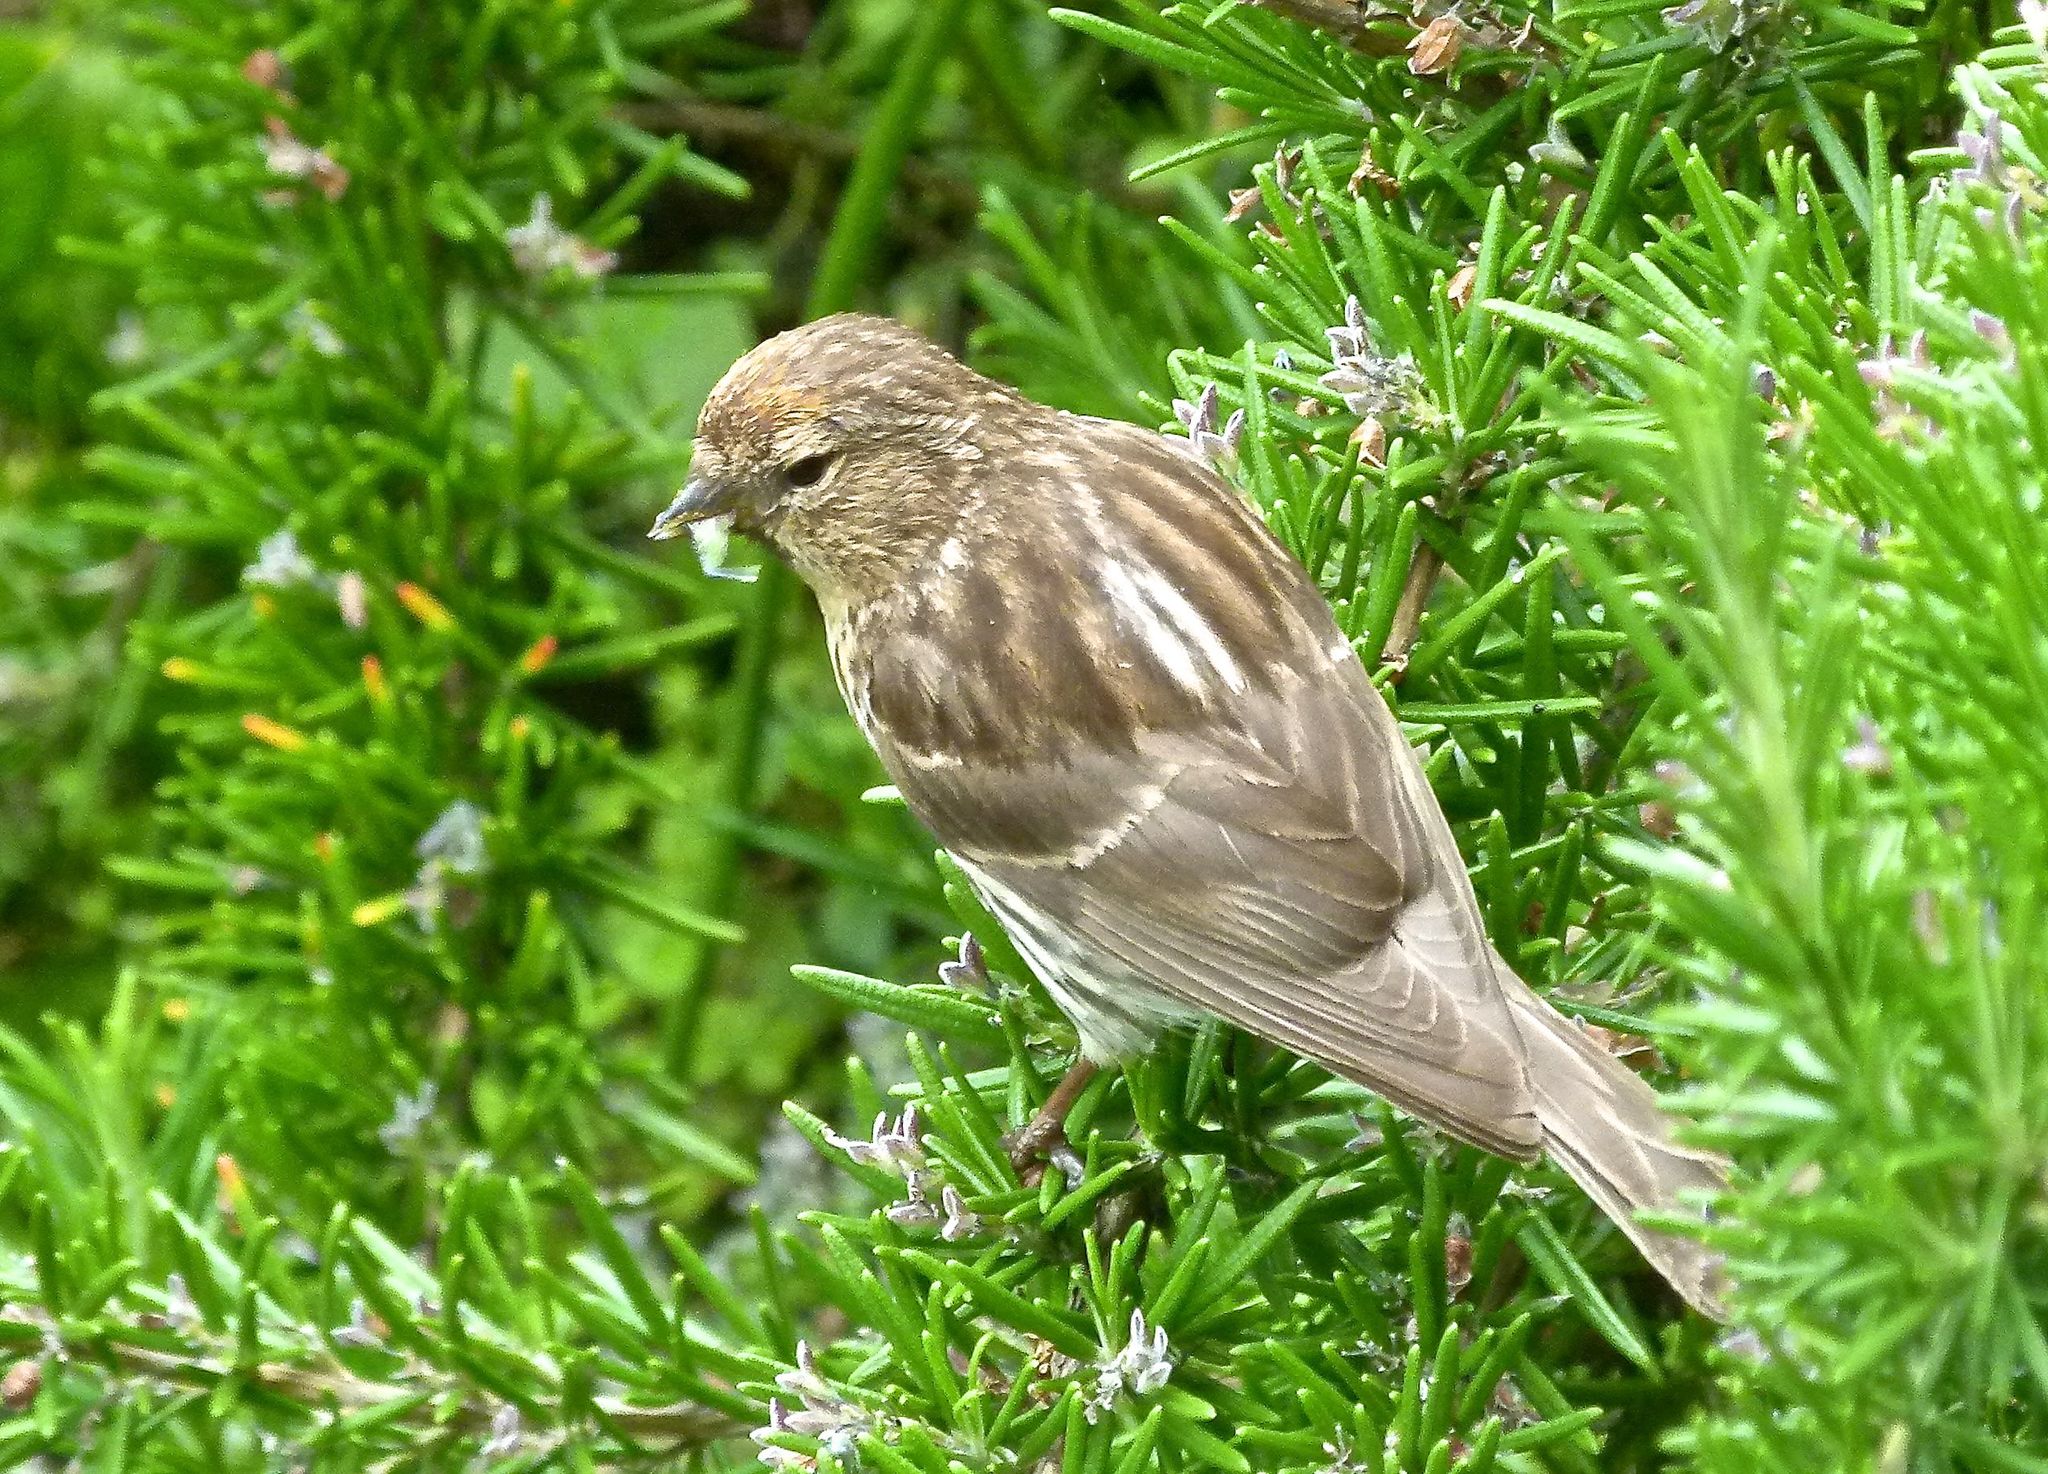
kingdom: Animalia
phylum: Chordata
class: Aves
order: Passeriformes
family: Fringillidae
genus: Acanthis
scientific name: Acanthis flammea
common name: Common redpoll
